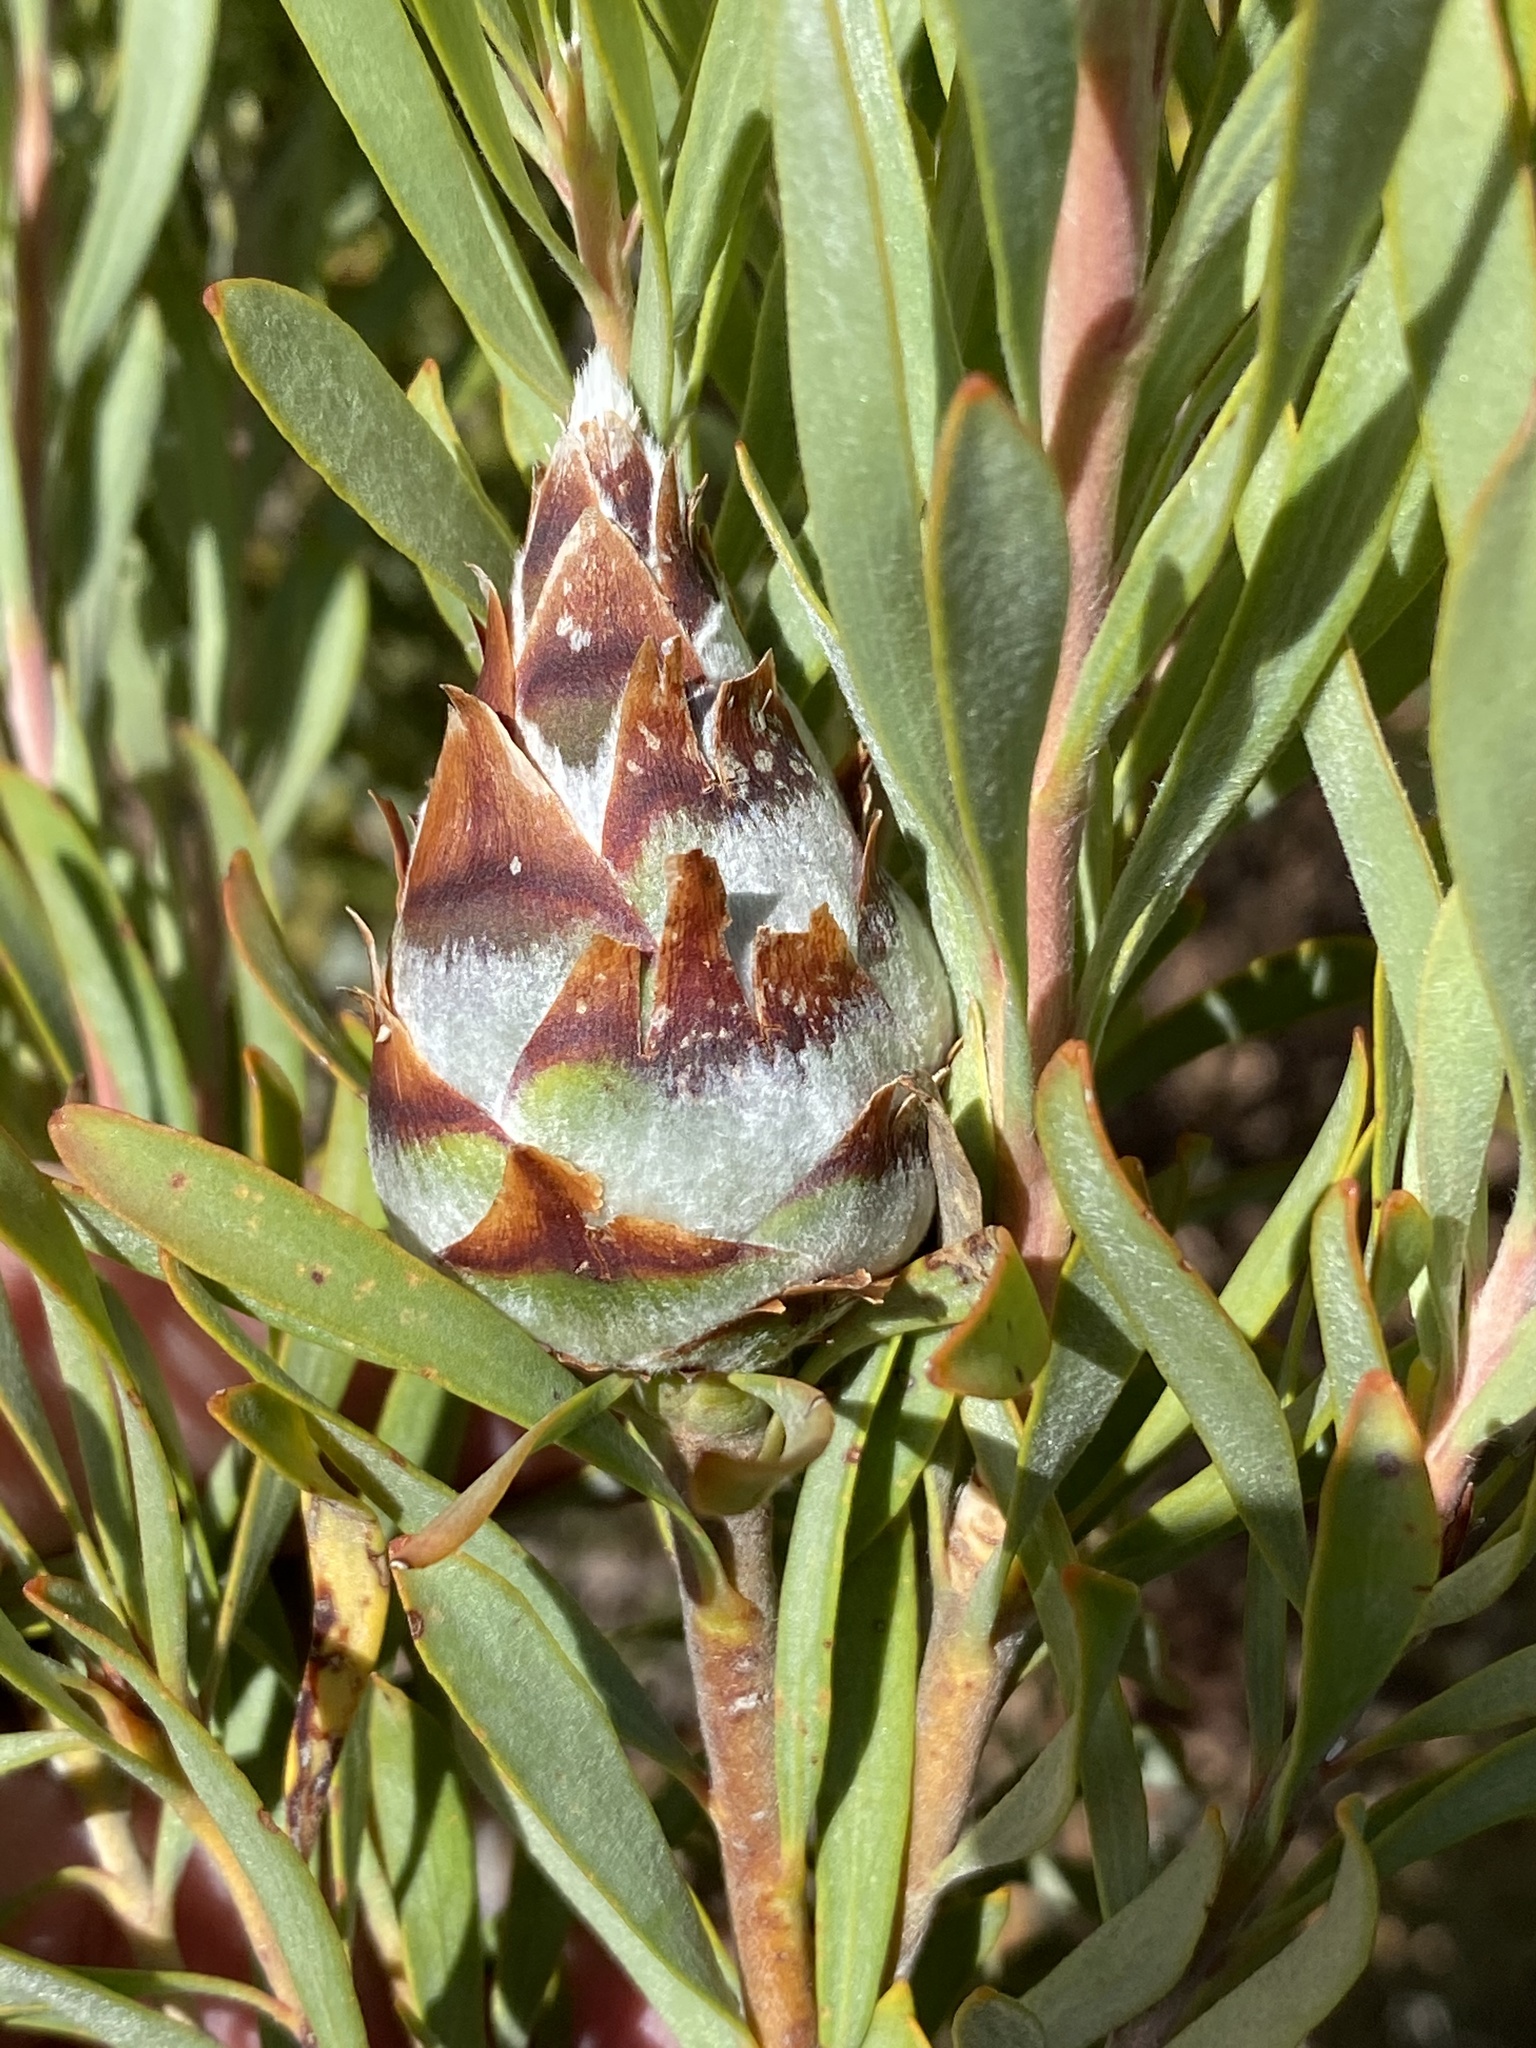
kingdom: Plantae
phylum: Tracheophyta
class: Magnoliopsida
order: Proteales
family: Proteaceae
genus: Leucadendron
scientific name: Leucadendron rubrum
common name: Spinning top
